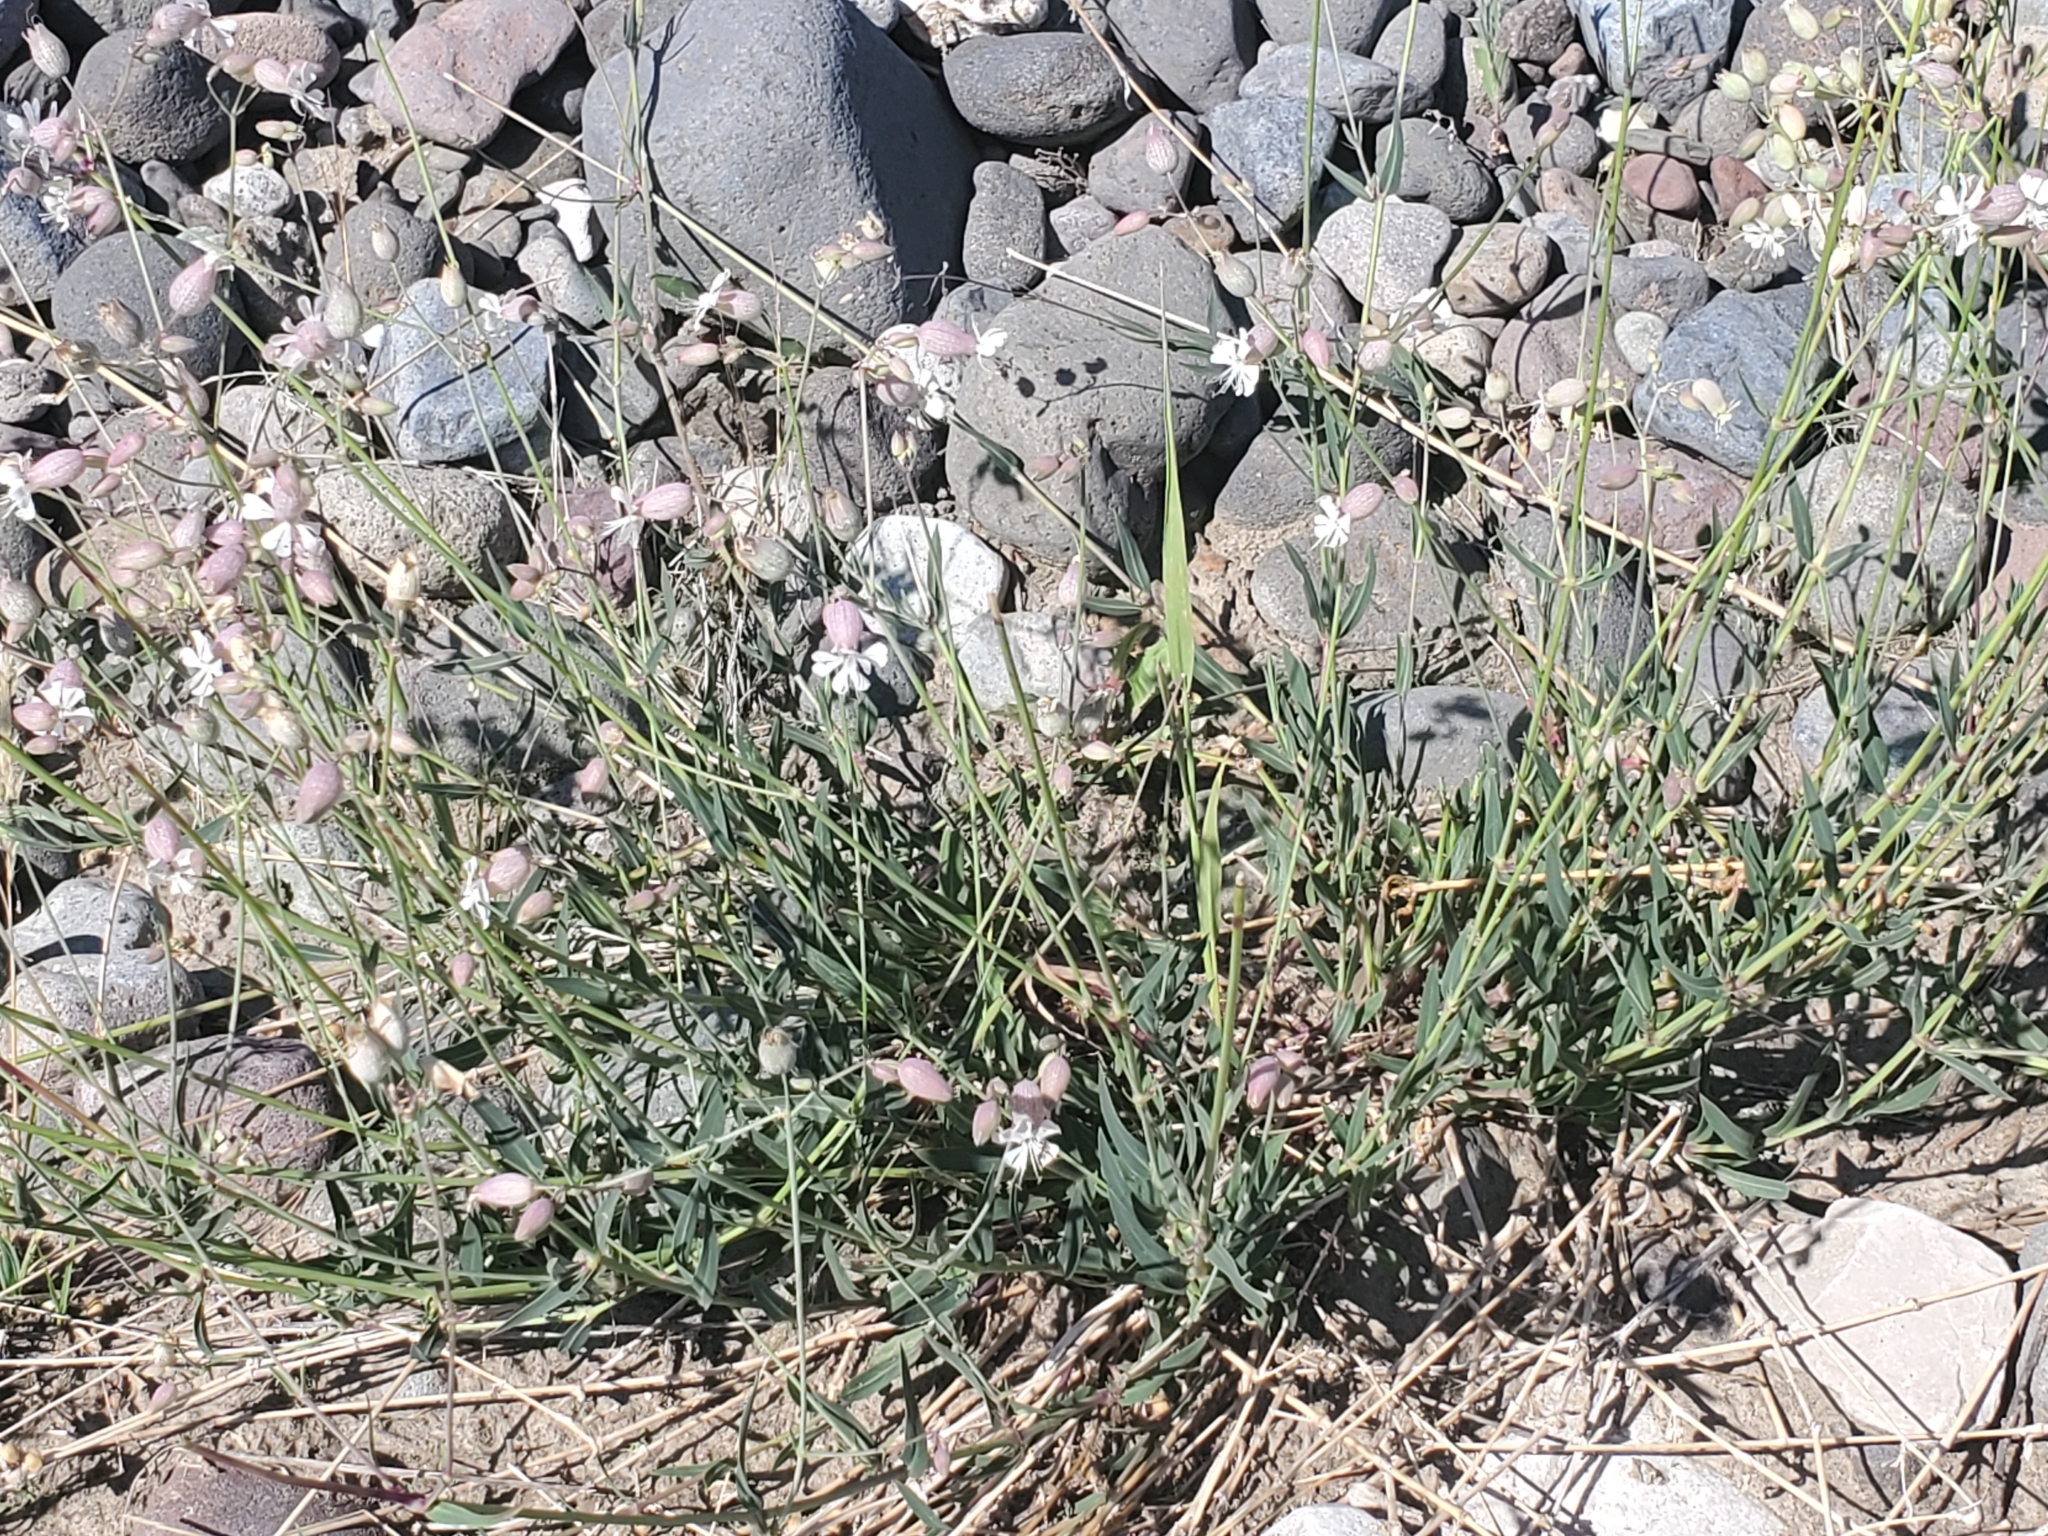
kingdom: Plantae
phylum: Tracheophyta
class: Magnoliopsida
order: Caryophyllales
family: Caryophyllaceae
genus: Silene
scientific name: Silene vulgaris
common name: Bladder campion
